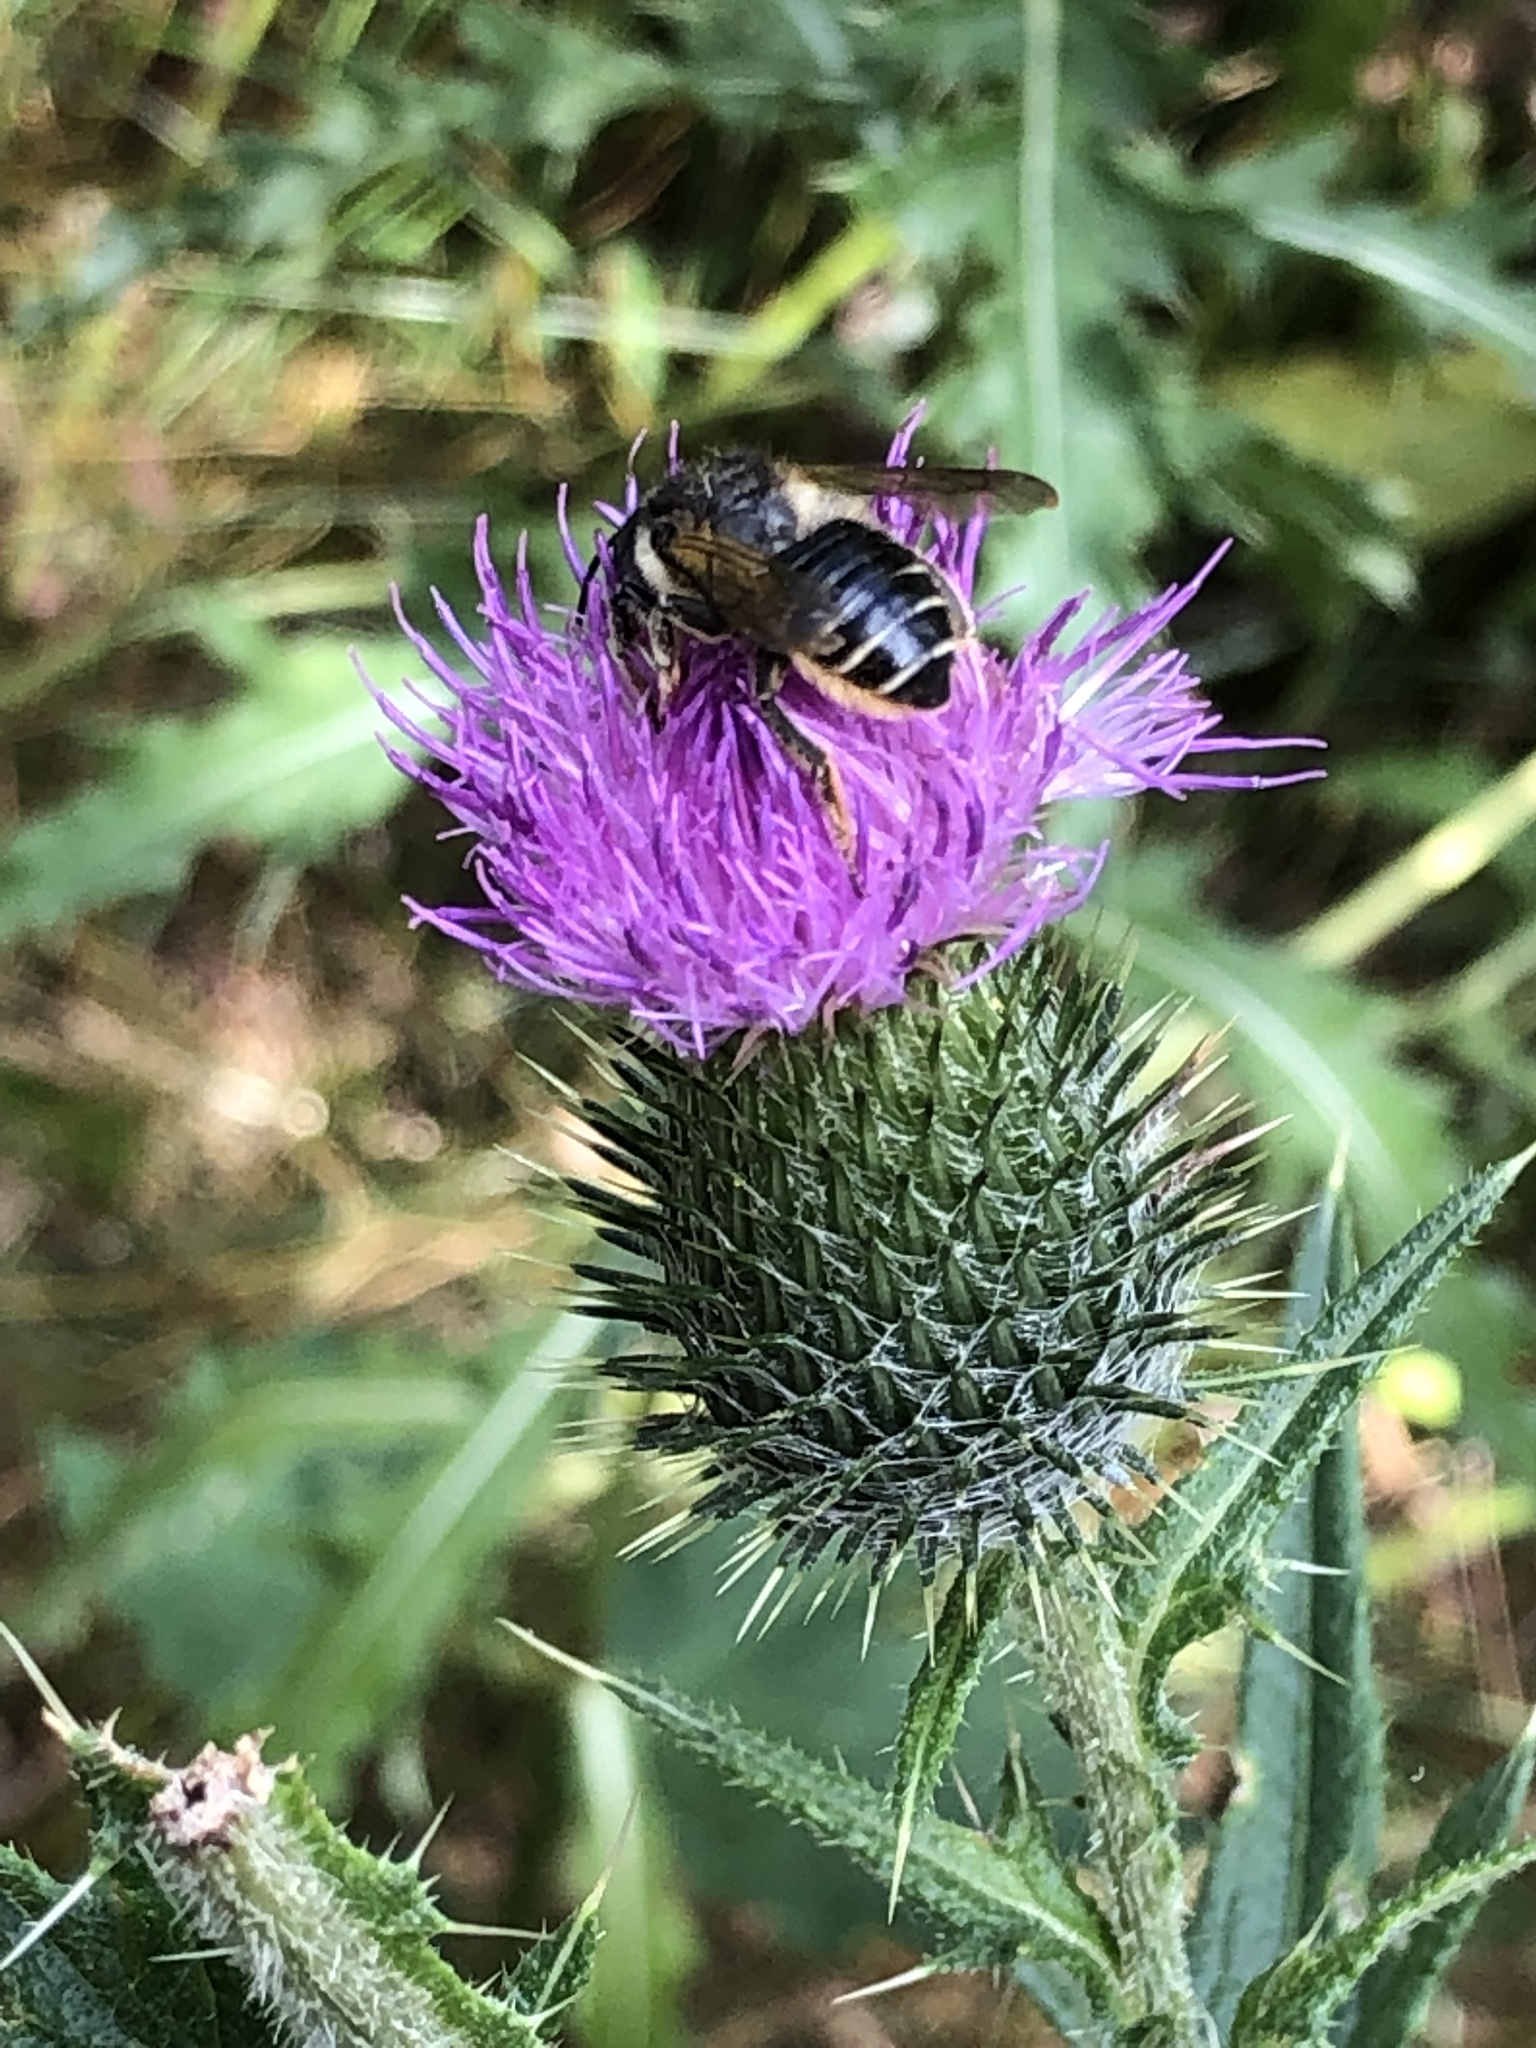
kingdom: Animalia
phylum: Arthropoda
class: Insecta
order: Hymenoptera
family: Megachilidae
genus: Megachile
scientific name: Megachile inermis
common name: Unarmed leafcutter bee
